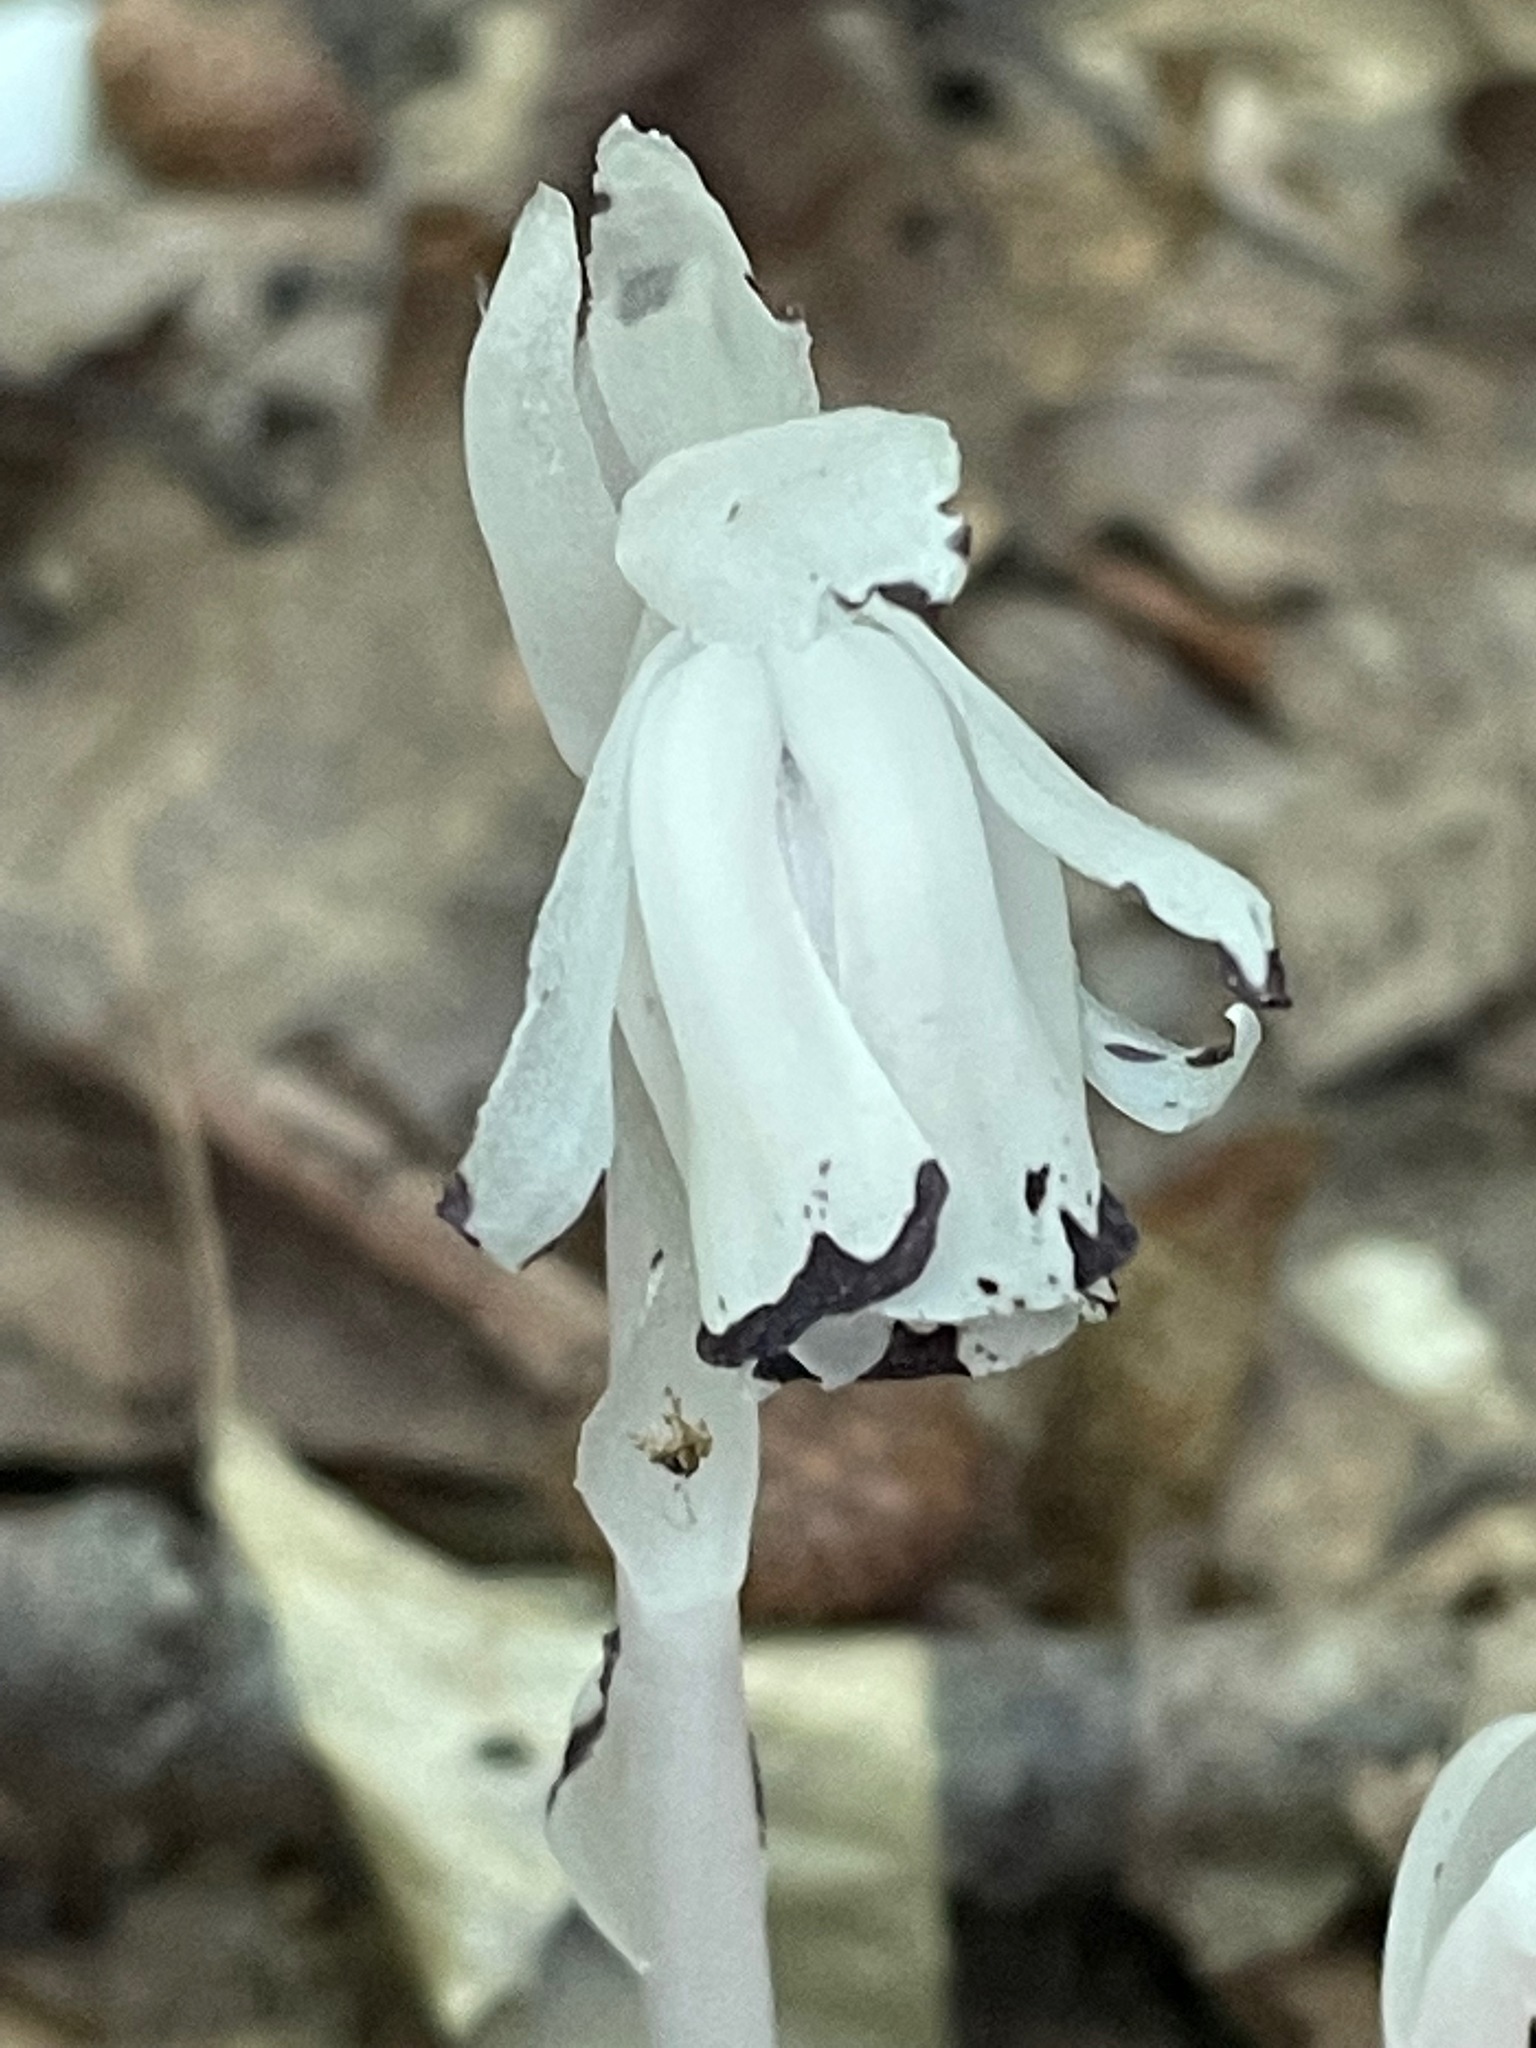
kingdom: Plantae
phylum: Tracheophyta
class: Magnoliopsida
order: Ericales
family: Ericaceae
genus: Monotropa
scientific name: Monotropa uniflora
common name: Convulsion root
